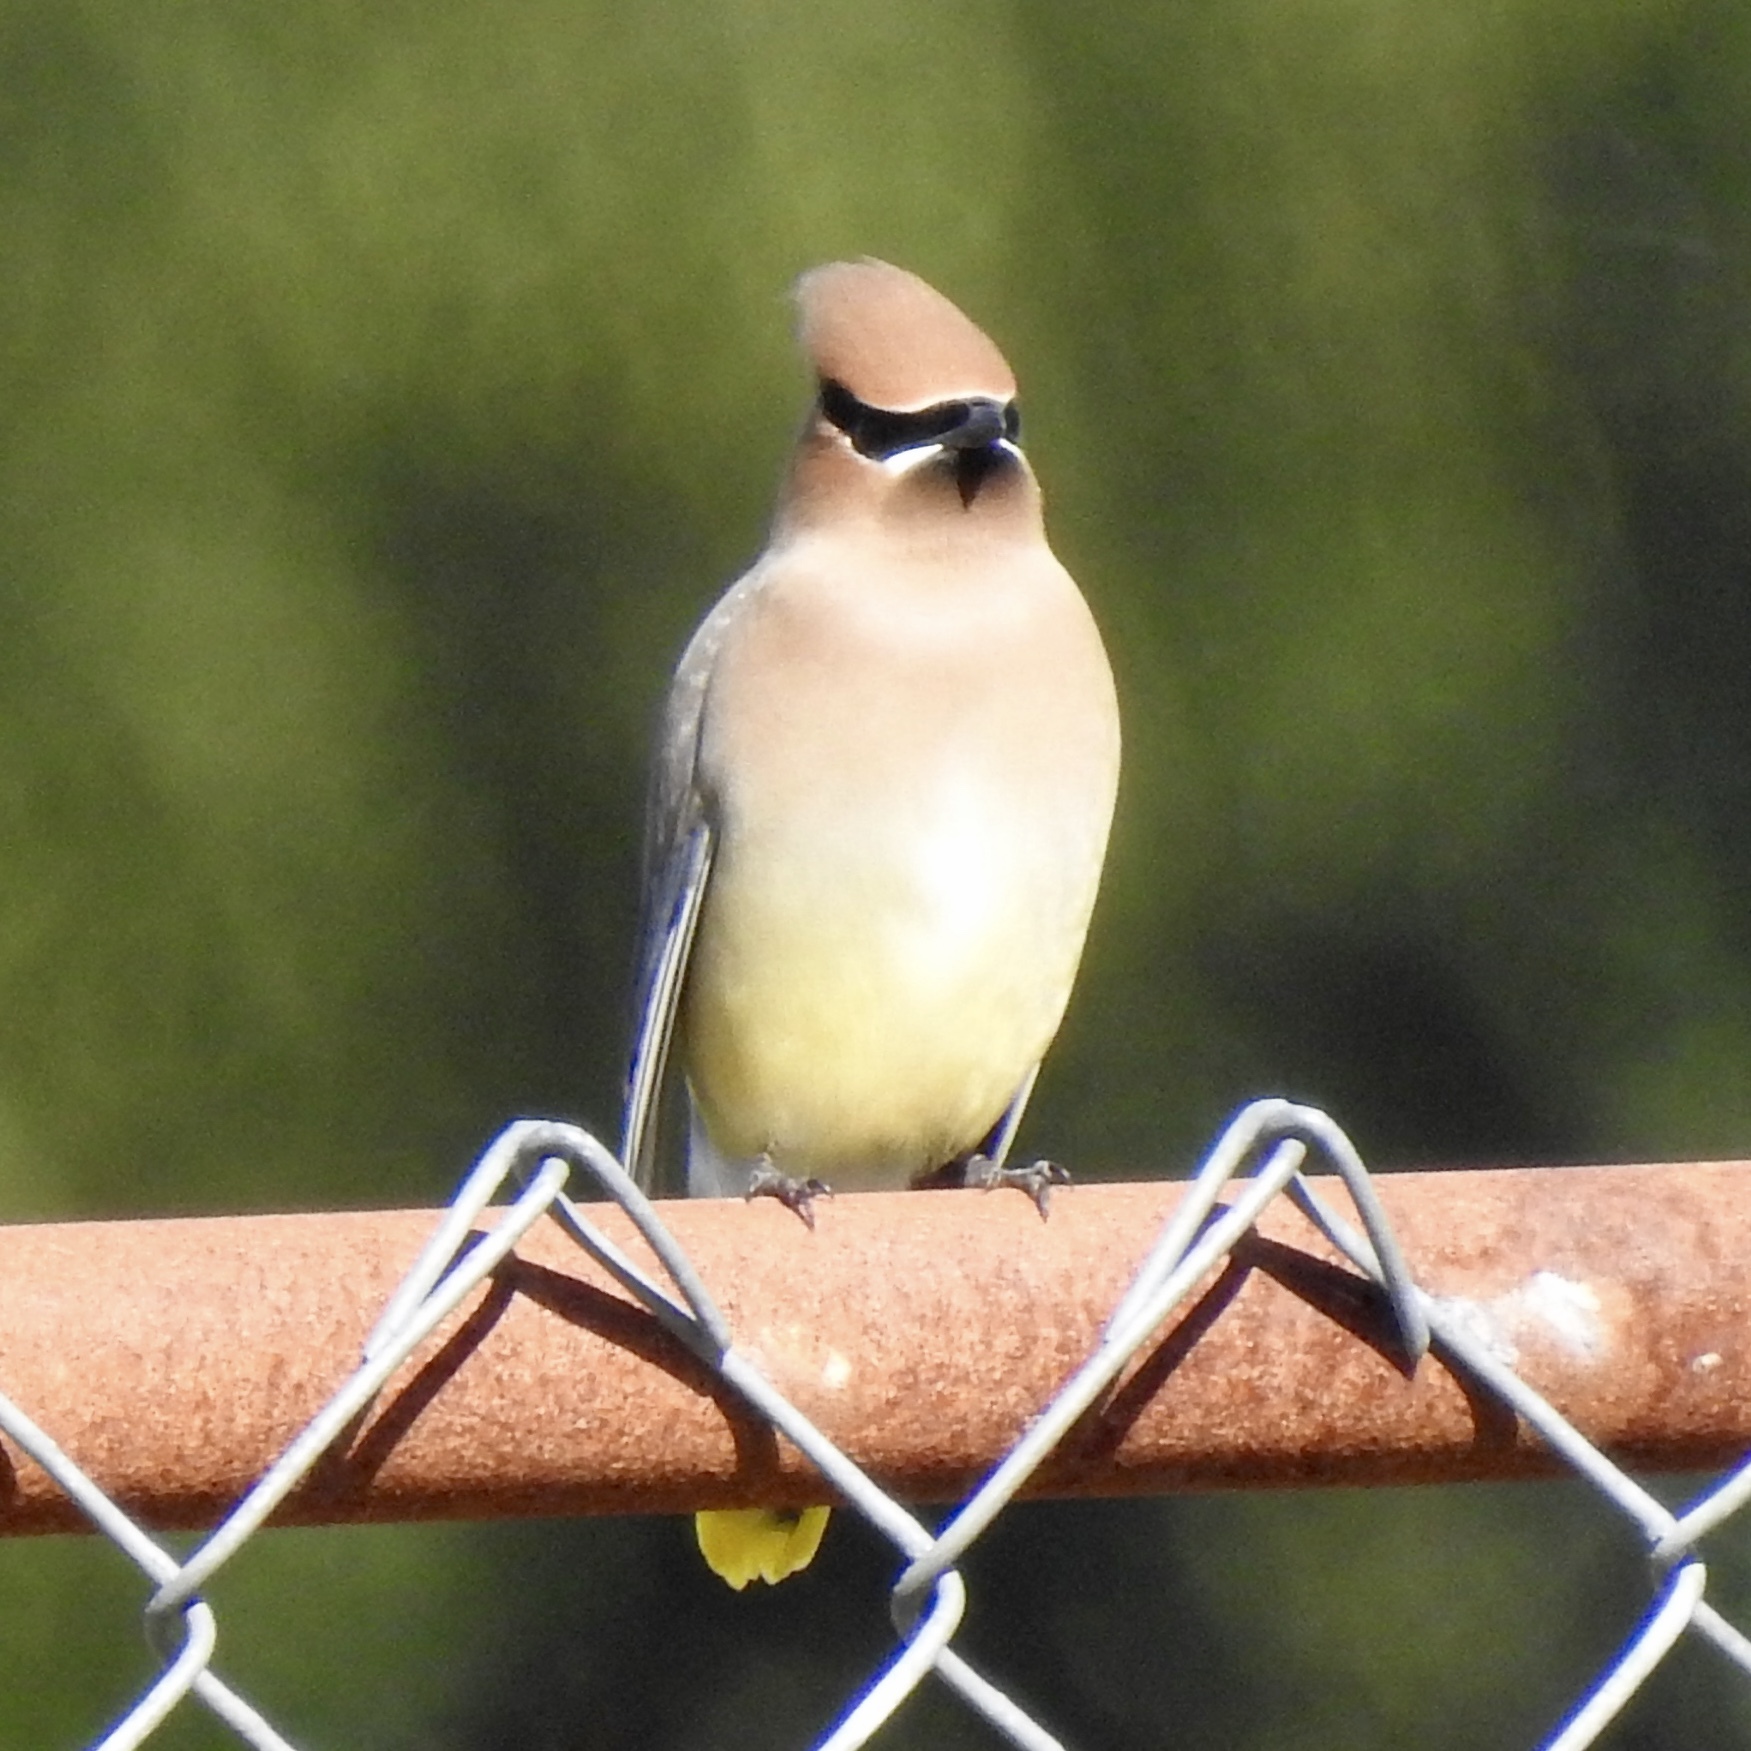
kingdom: Animalia
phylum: Chordata
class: Aves
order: Passeriformes
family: Bombycillidae
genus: Bombycilla
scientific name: Bombycilla cedrorum
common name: Cedar waxwing
